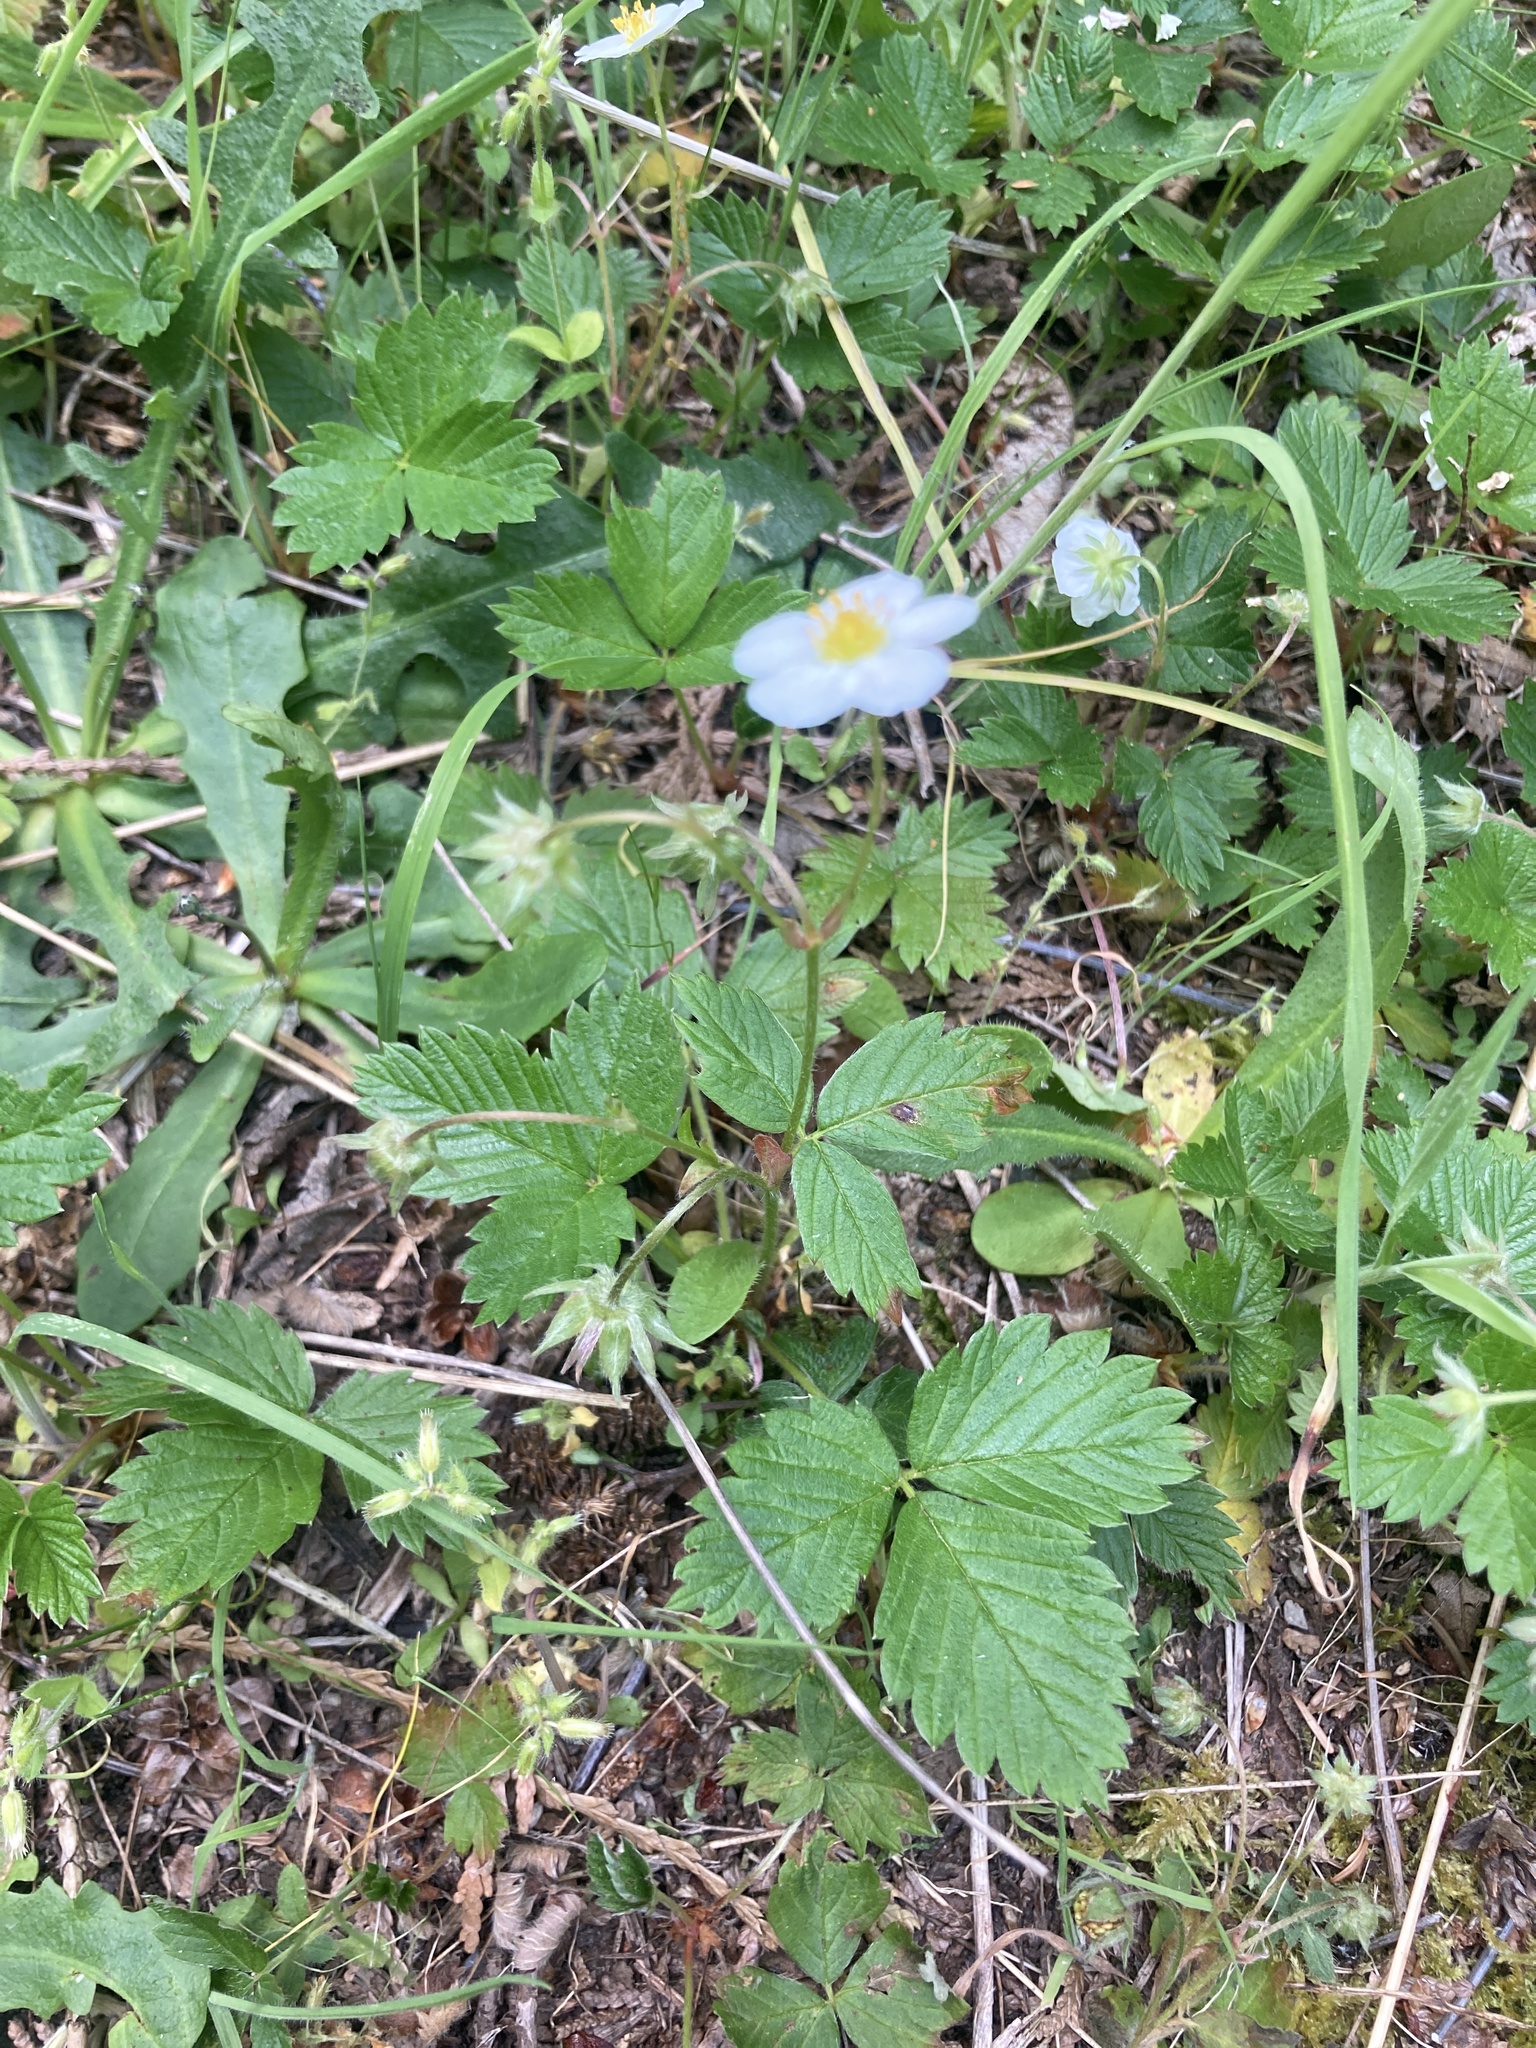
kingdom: Plantae
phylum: Tracheophyta
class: Magnoliopsida
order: Rosales
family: Rosaceae
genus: Fragaria
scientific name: Fragaria vesca
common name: Wild strawberry
